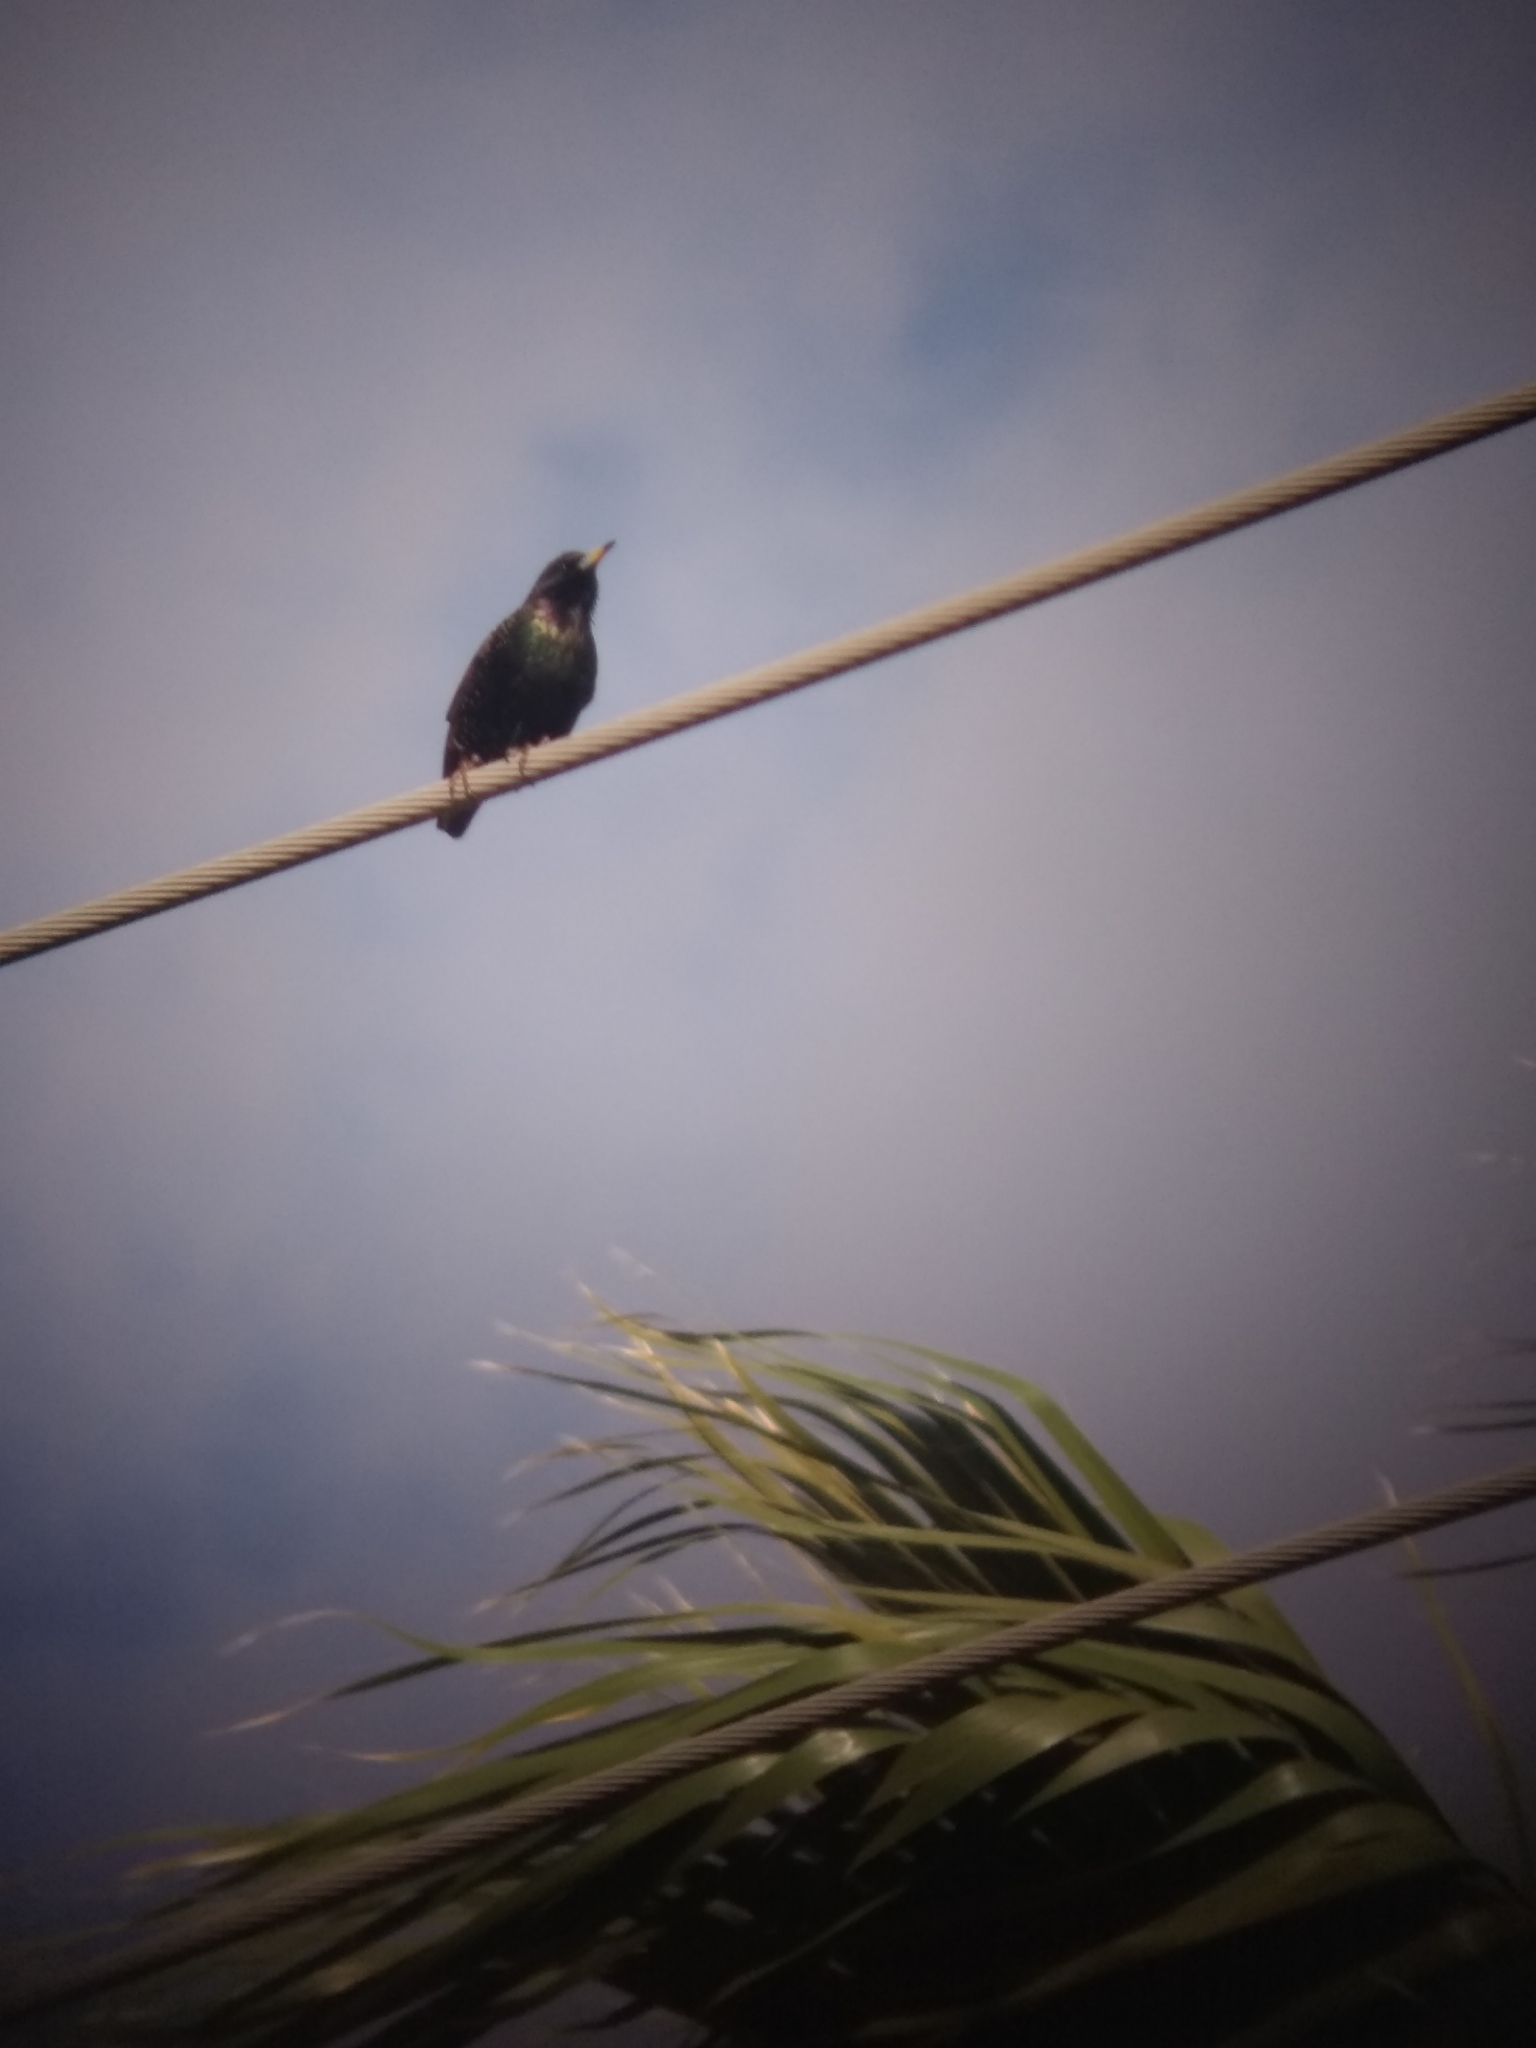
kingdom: Animalia
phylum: Chordata
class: Aves
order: Passeriformes
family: Sturnidae
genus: Sturnus
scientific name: Sturnus vulgaris
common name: Common starling
